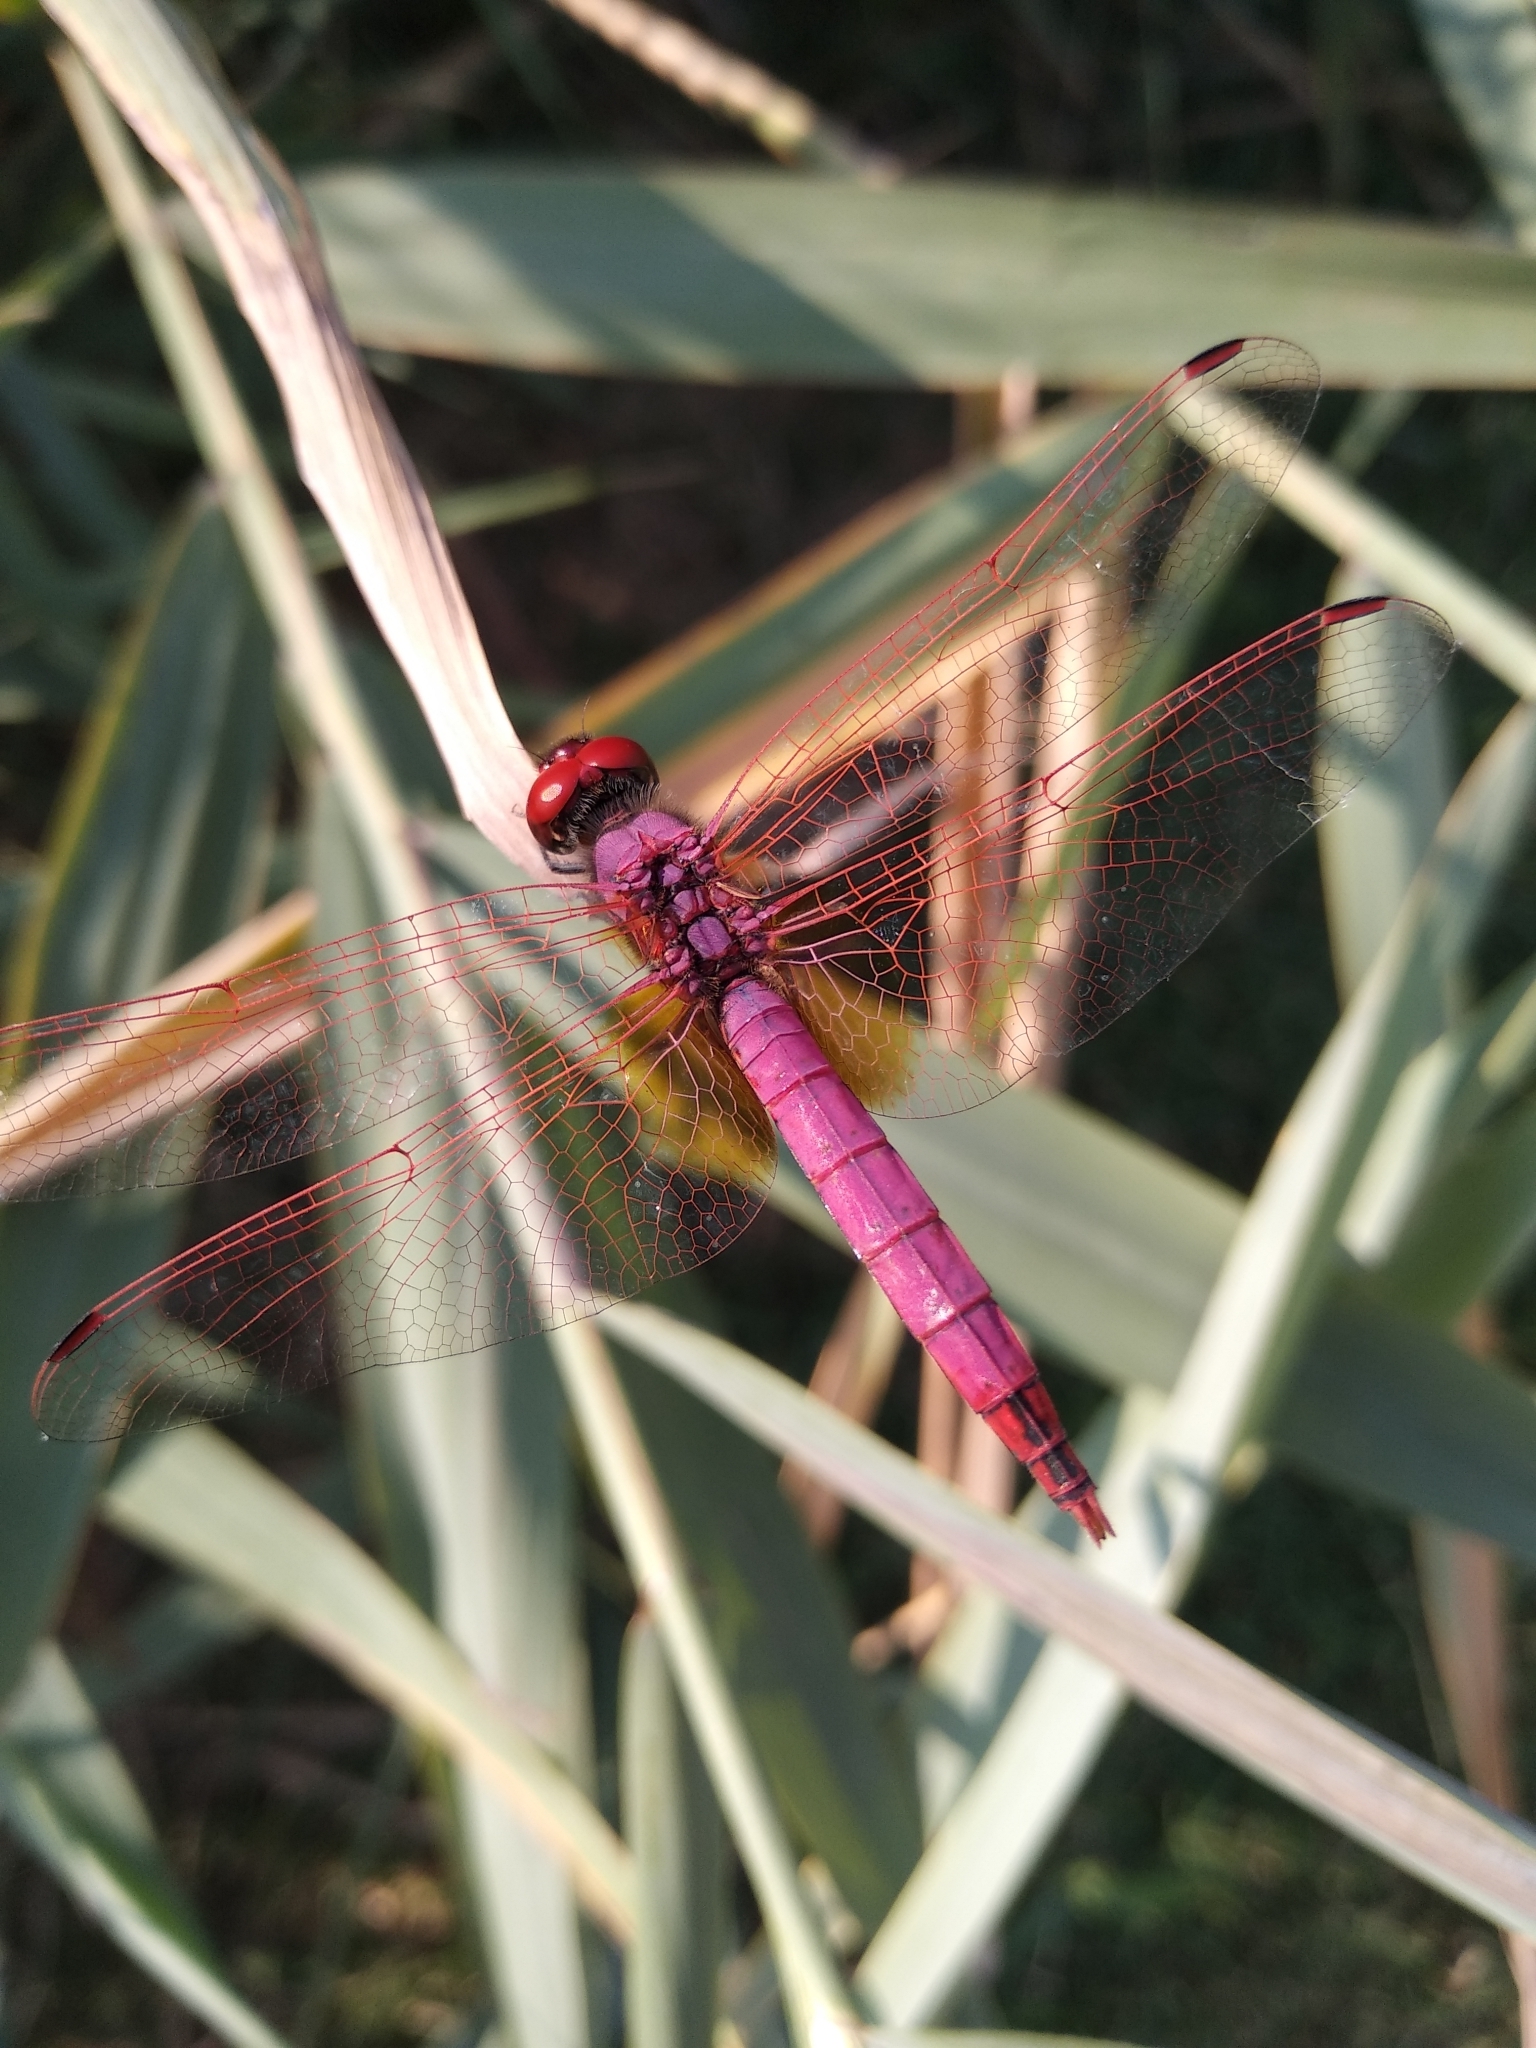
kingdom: Animalia
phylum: Arthropoda
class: Insecta
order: Odonata
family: Libellulidae
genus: Trithemis
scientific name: Trithemis annulata
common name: Violet dropwing
